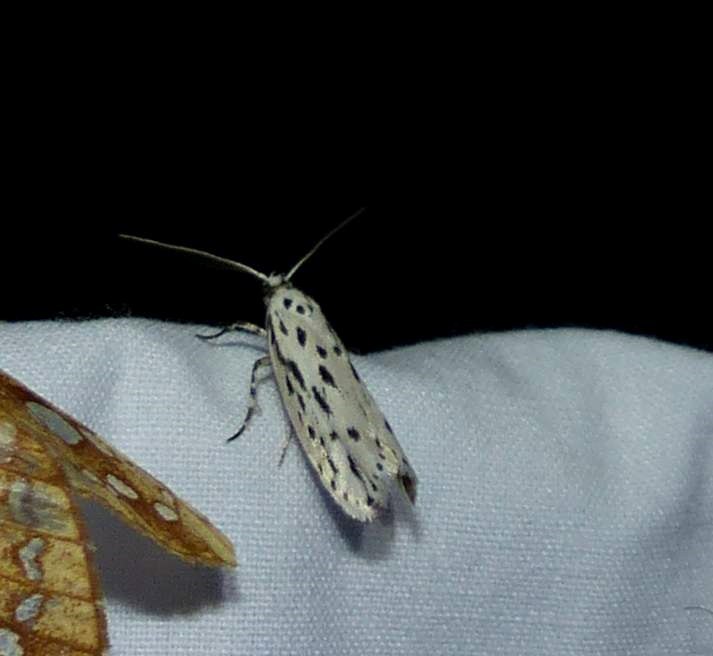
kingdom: Animalia
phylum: Arthropoda
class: Insecta
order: Lepidoptera
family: Ethmiidae
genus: Ethmia
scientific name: Ethmia longimaculella
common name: Streaked ethmia moth
